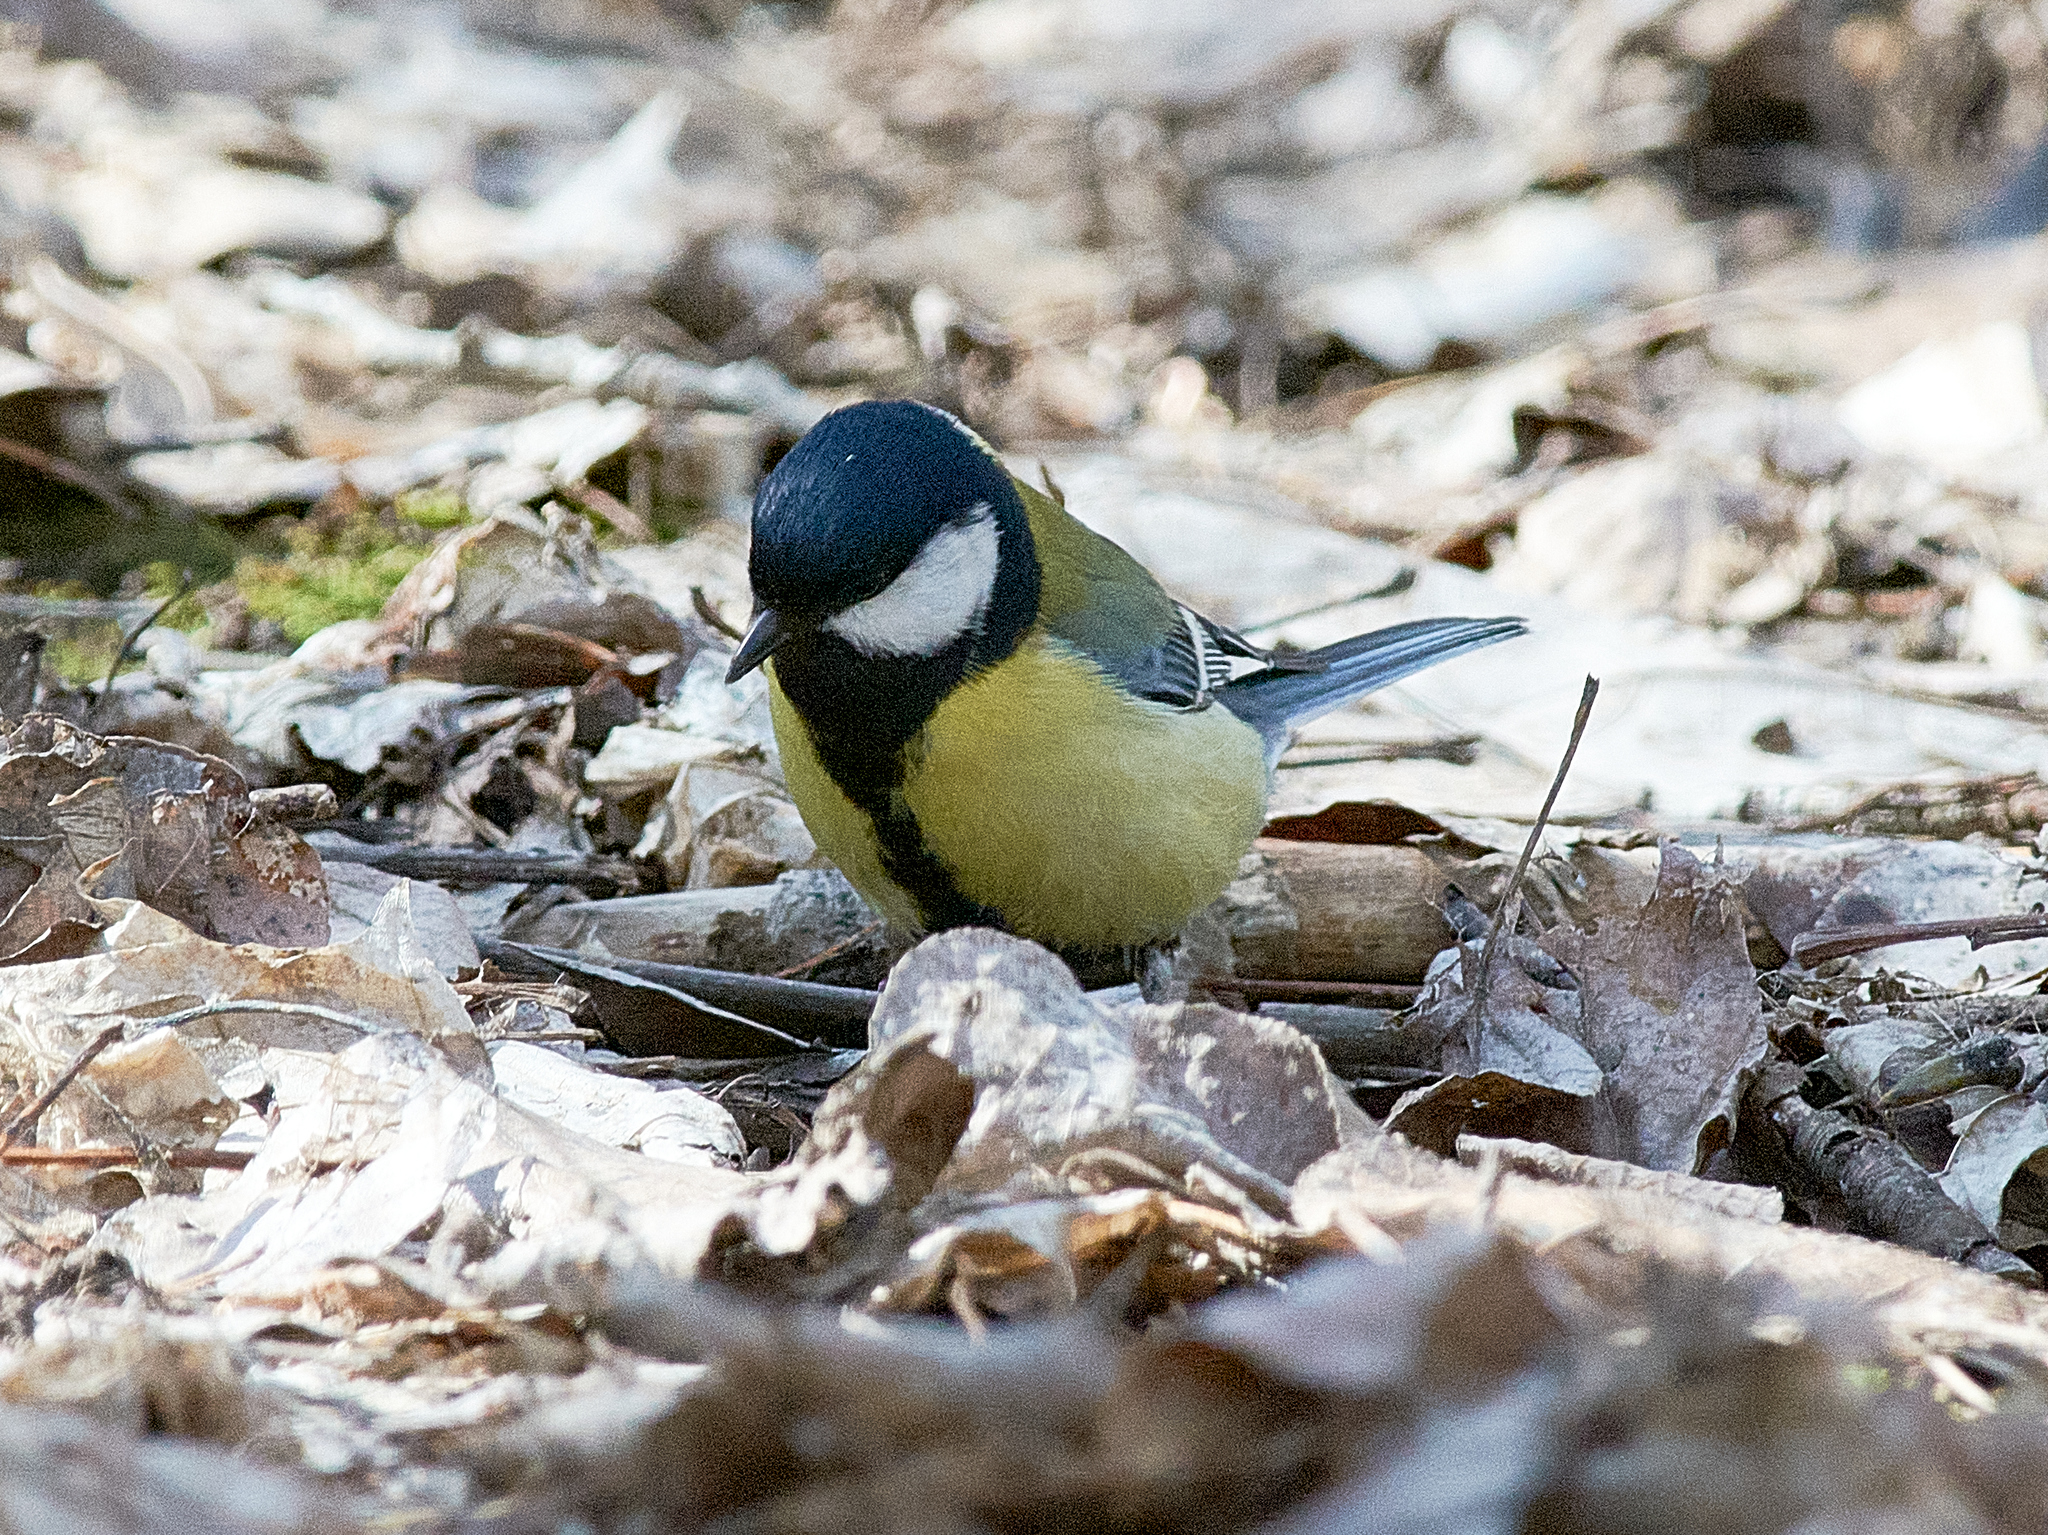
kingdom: Animalia
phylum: Chordata
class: Aves
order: Passeriformes
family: Paridae
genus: Parus
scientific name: Parus major
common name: Great tit
